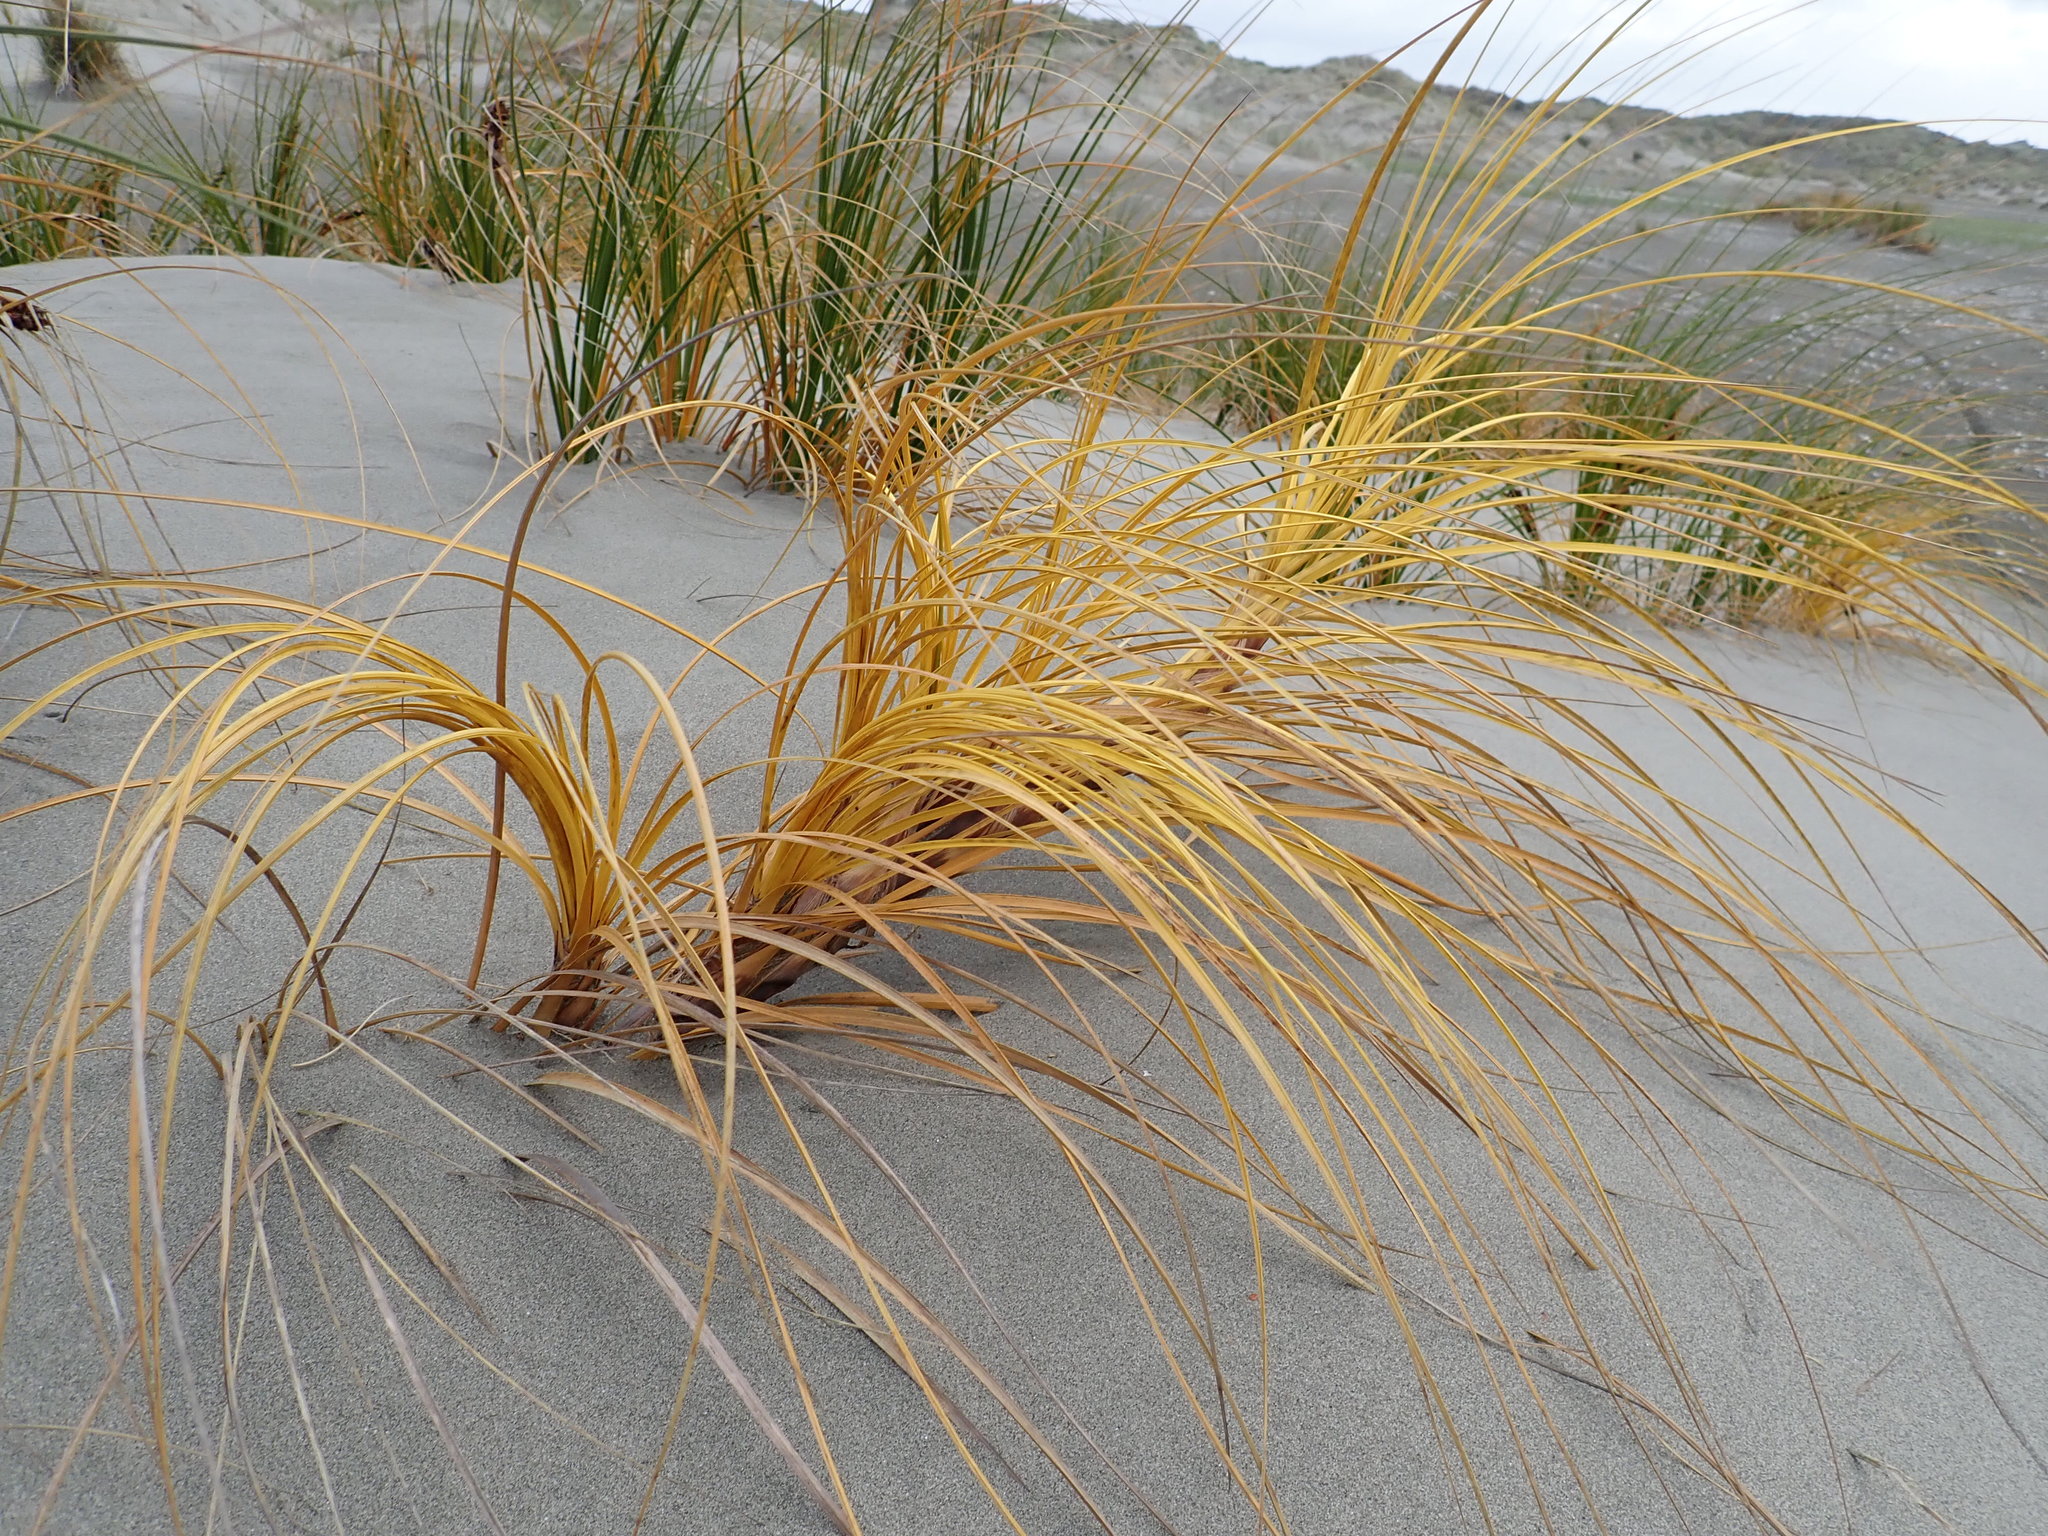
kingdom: Plantae
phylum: Tracheophyta
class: Liliopsida
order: Poales
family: Cyperaceae
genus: Ficinia
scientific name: Ficinia spiralis
